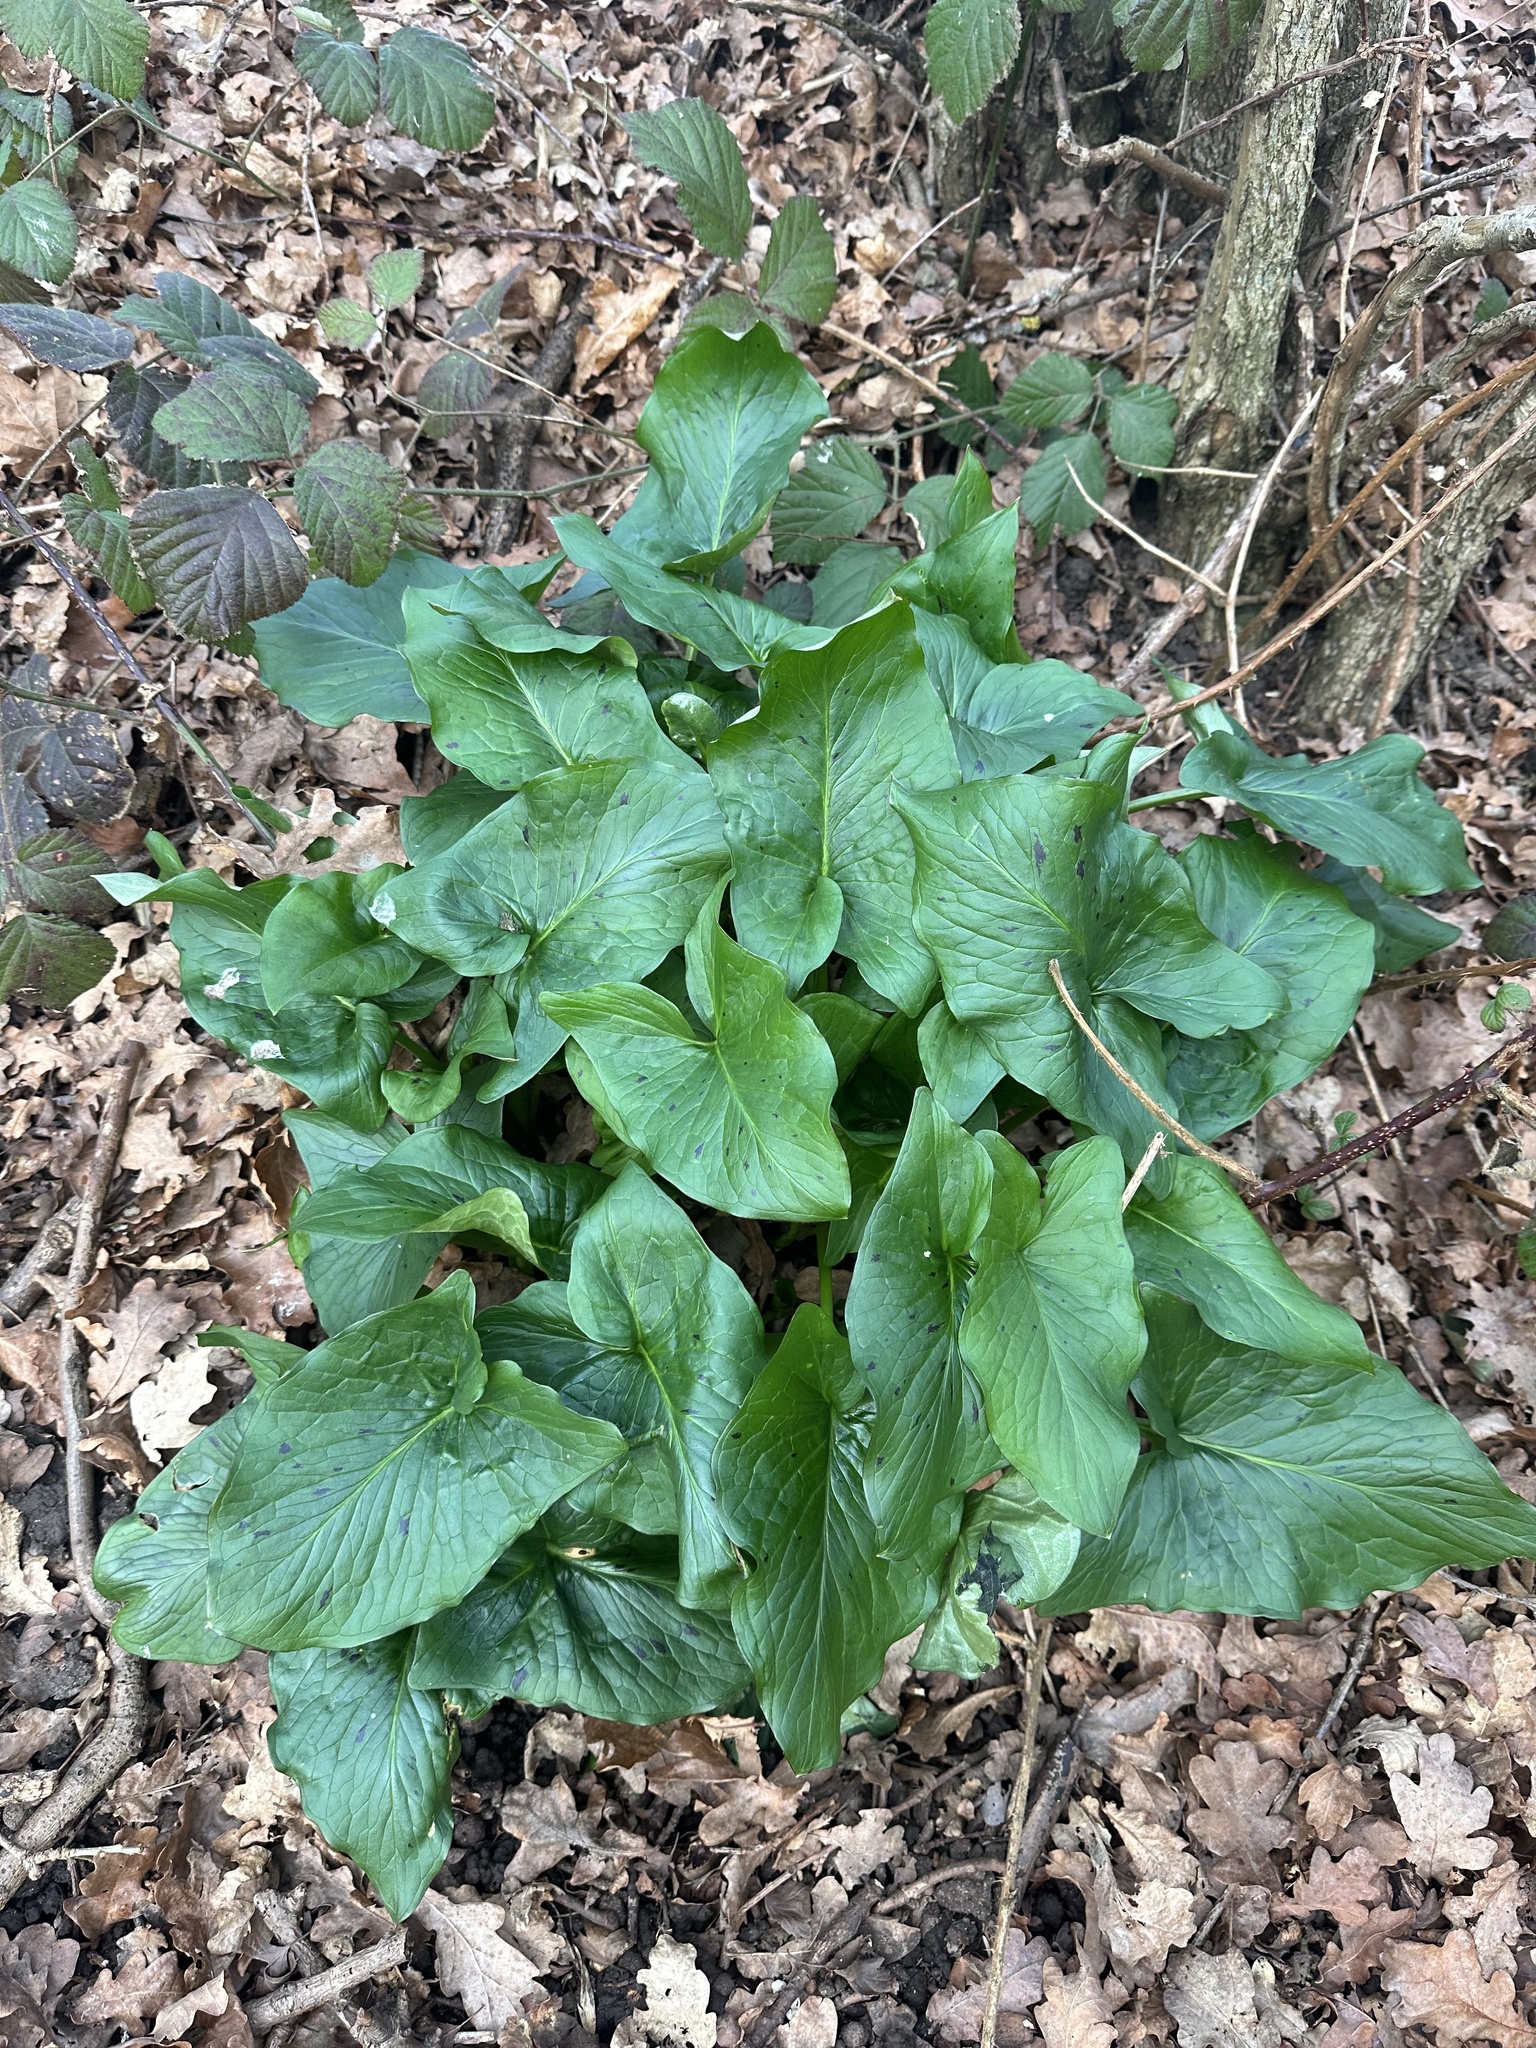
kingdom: Plantae
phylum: Tracheophyta
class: Liliopsida
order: Alismatales
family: Araceae
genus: Arum
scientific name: Arum maculatum
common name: Lords-and-ladies
